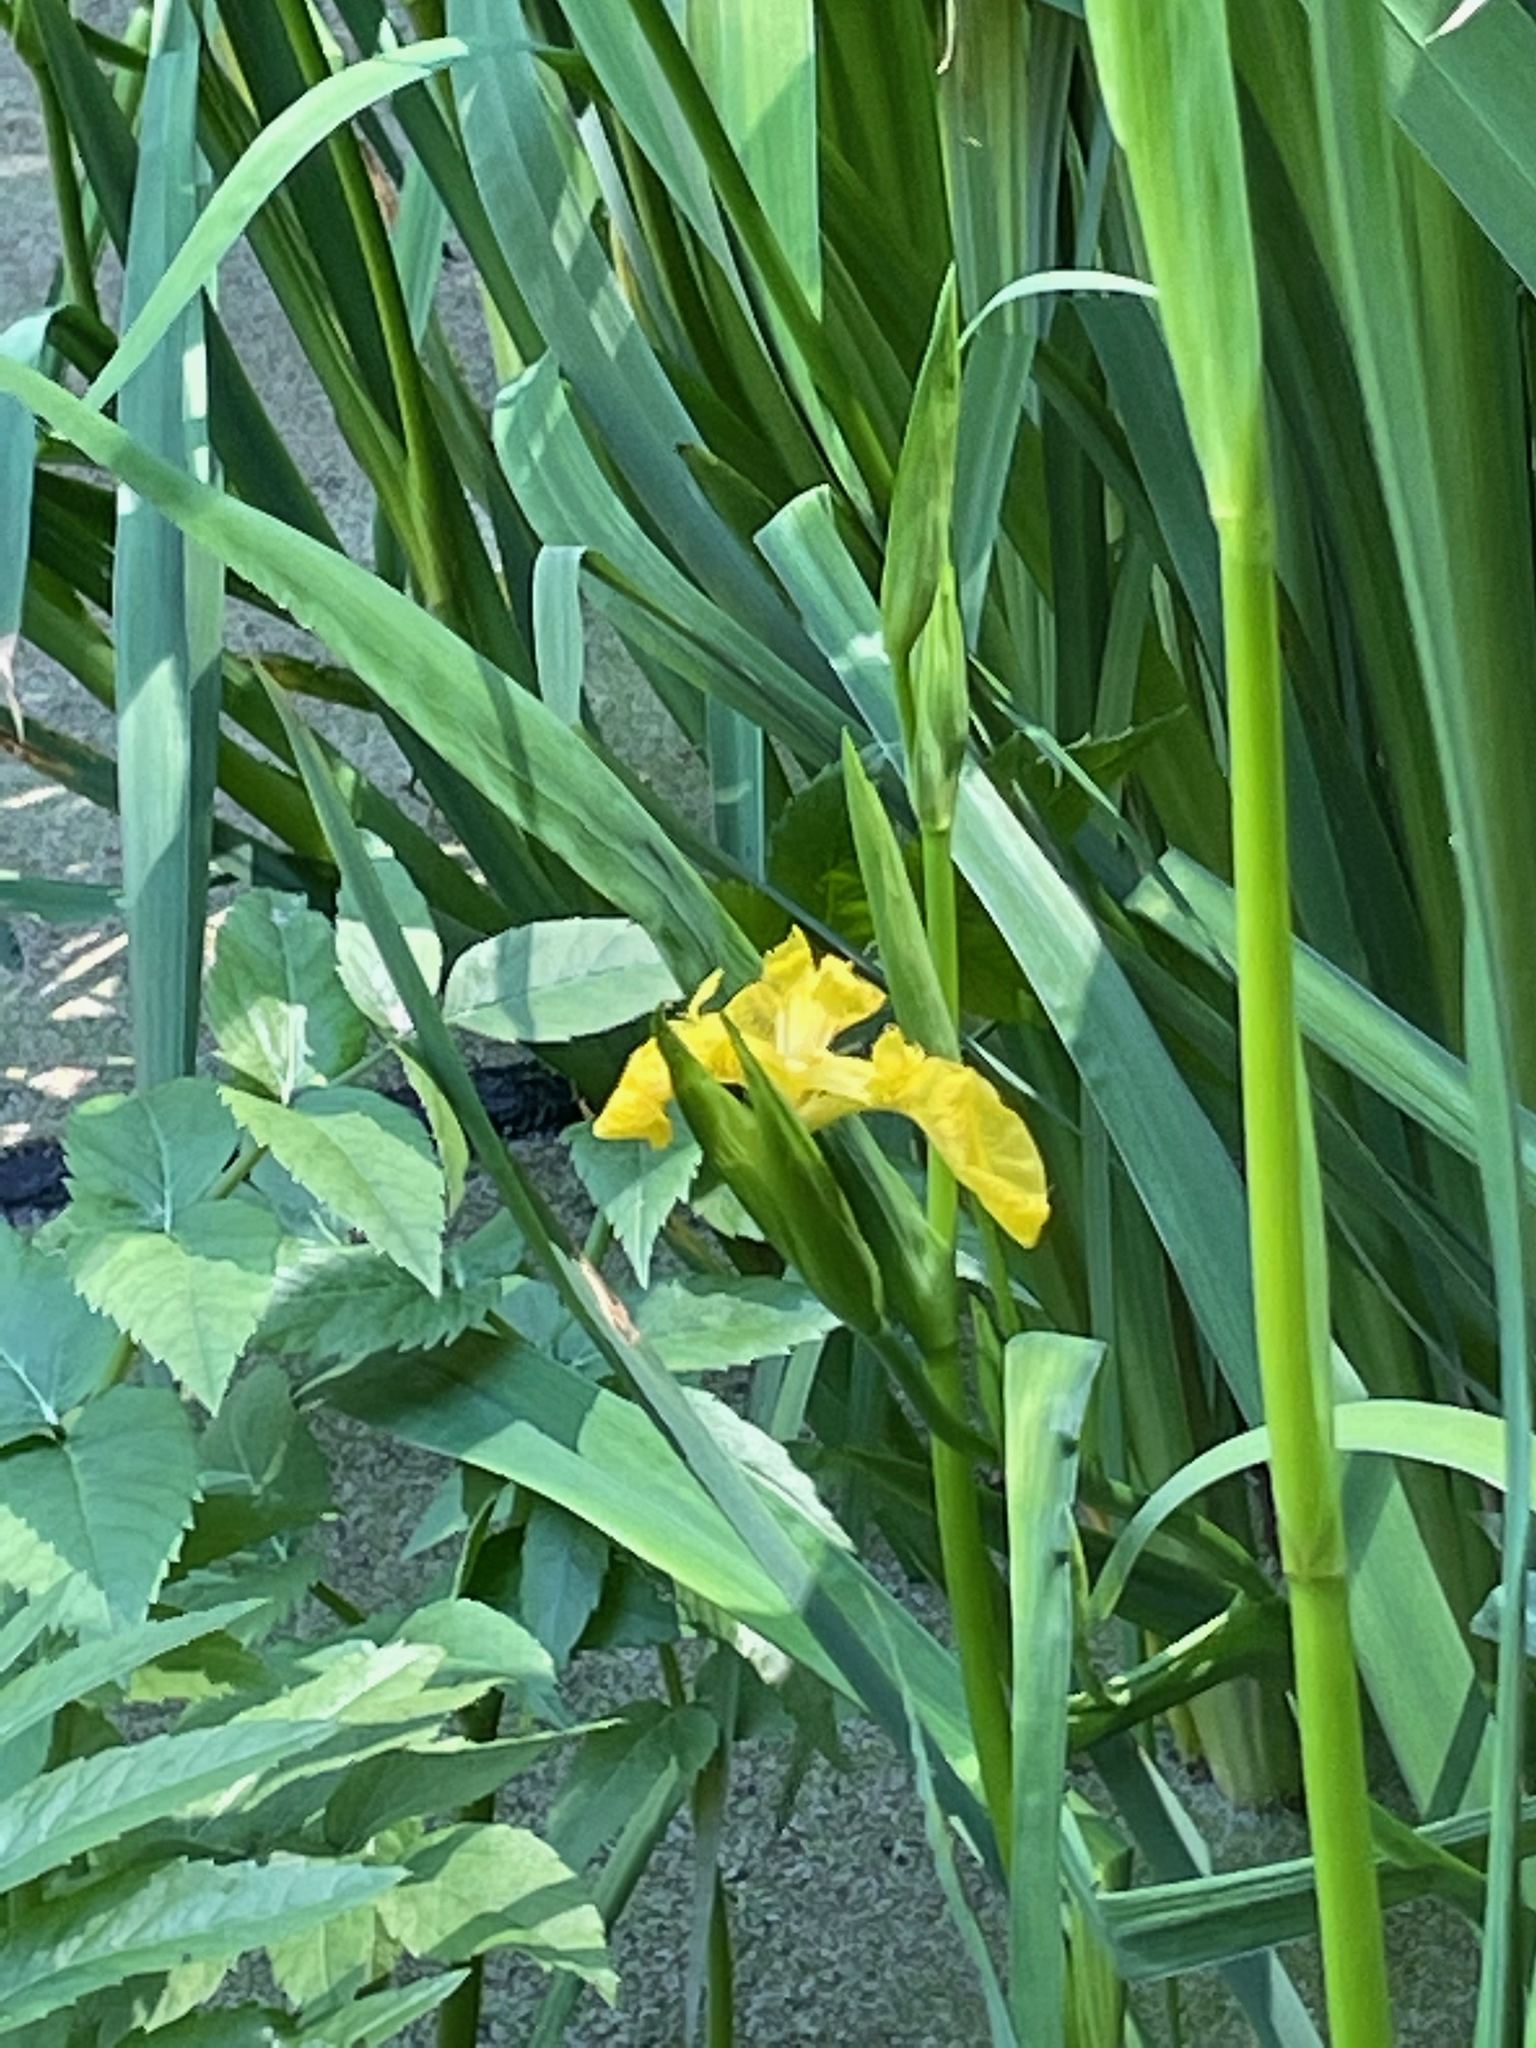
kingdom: Plantae
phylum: Tracheophyta
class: Liliopsida
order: Asparagales
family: Iridaceae
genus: Iris
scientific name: Iris pseudacorus
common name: Yellow flag
